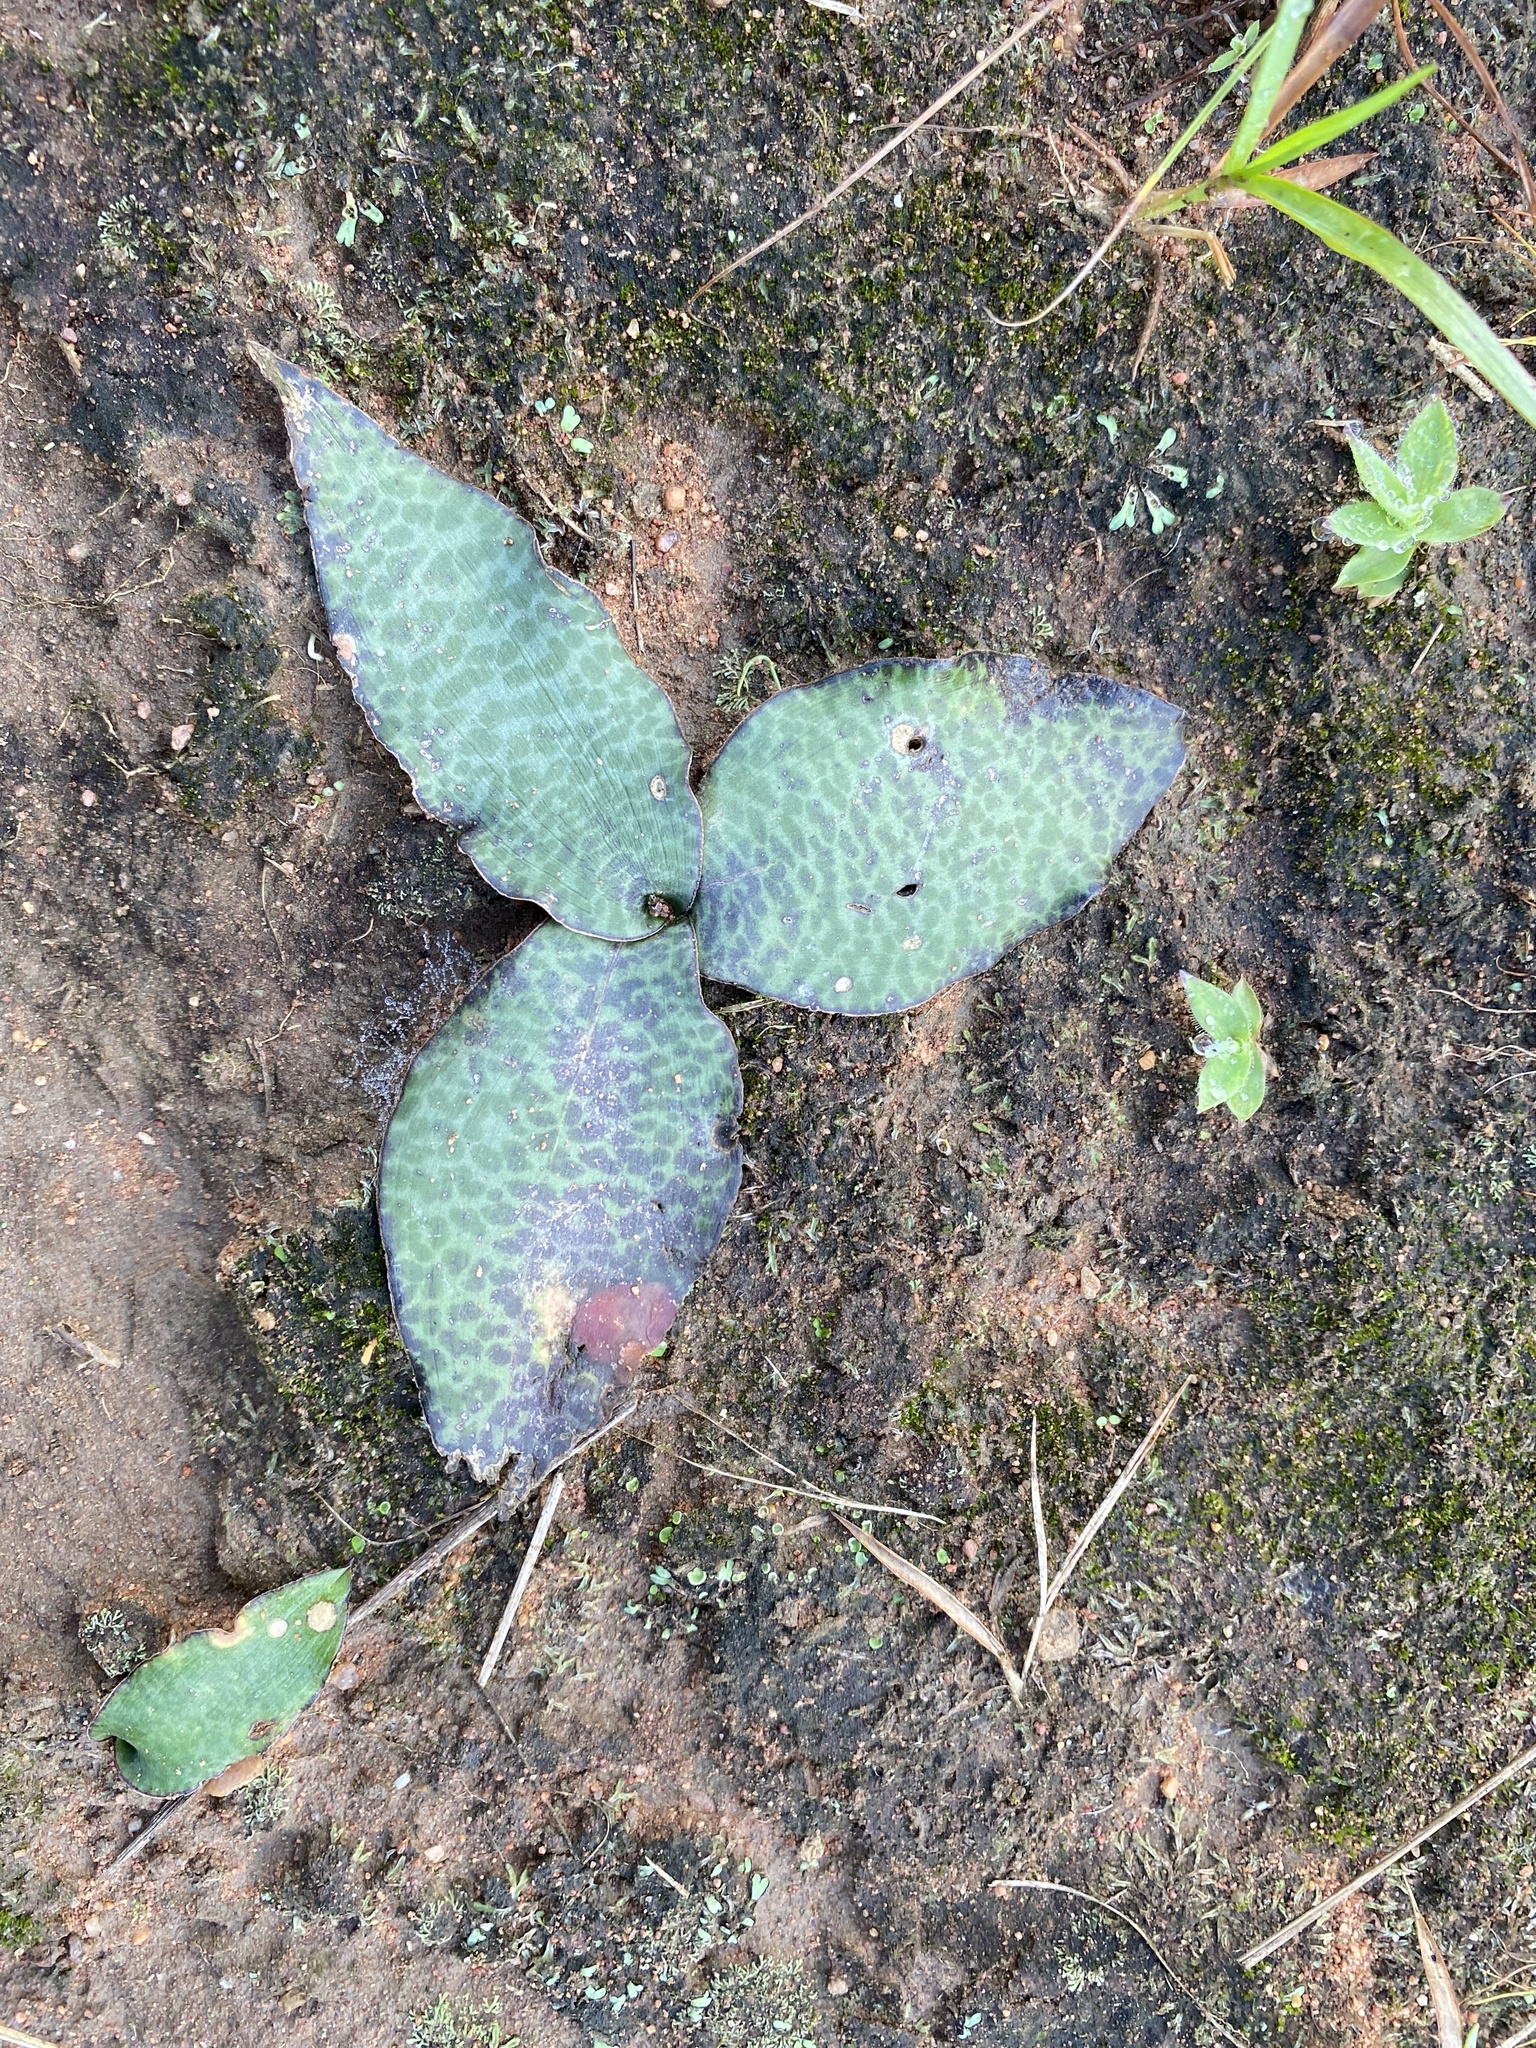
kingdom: Plantae
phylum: Tracheophyta
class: Liliopsida
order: Asparagales
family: Asparagaceae
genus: Ledebouria
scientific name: Ledebouria ovatifolia
